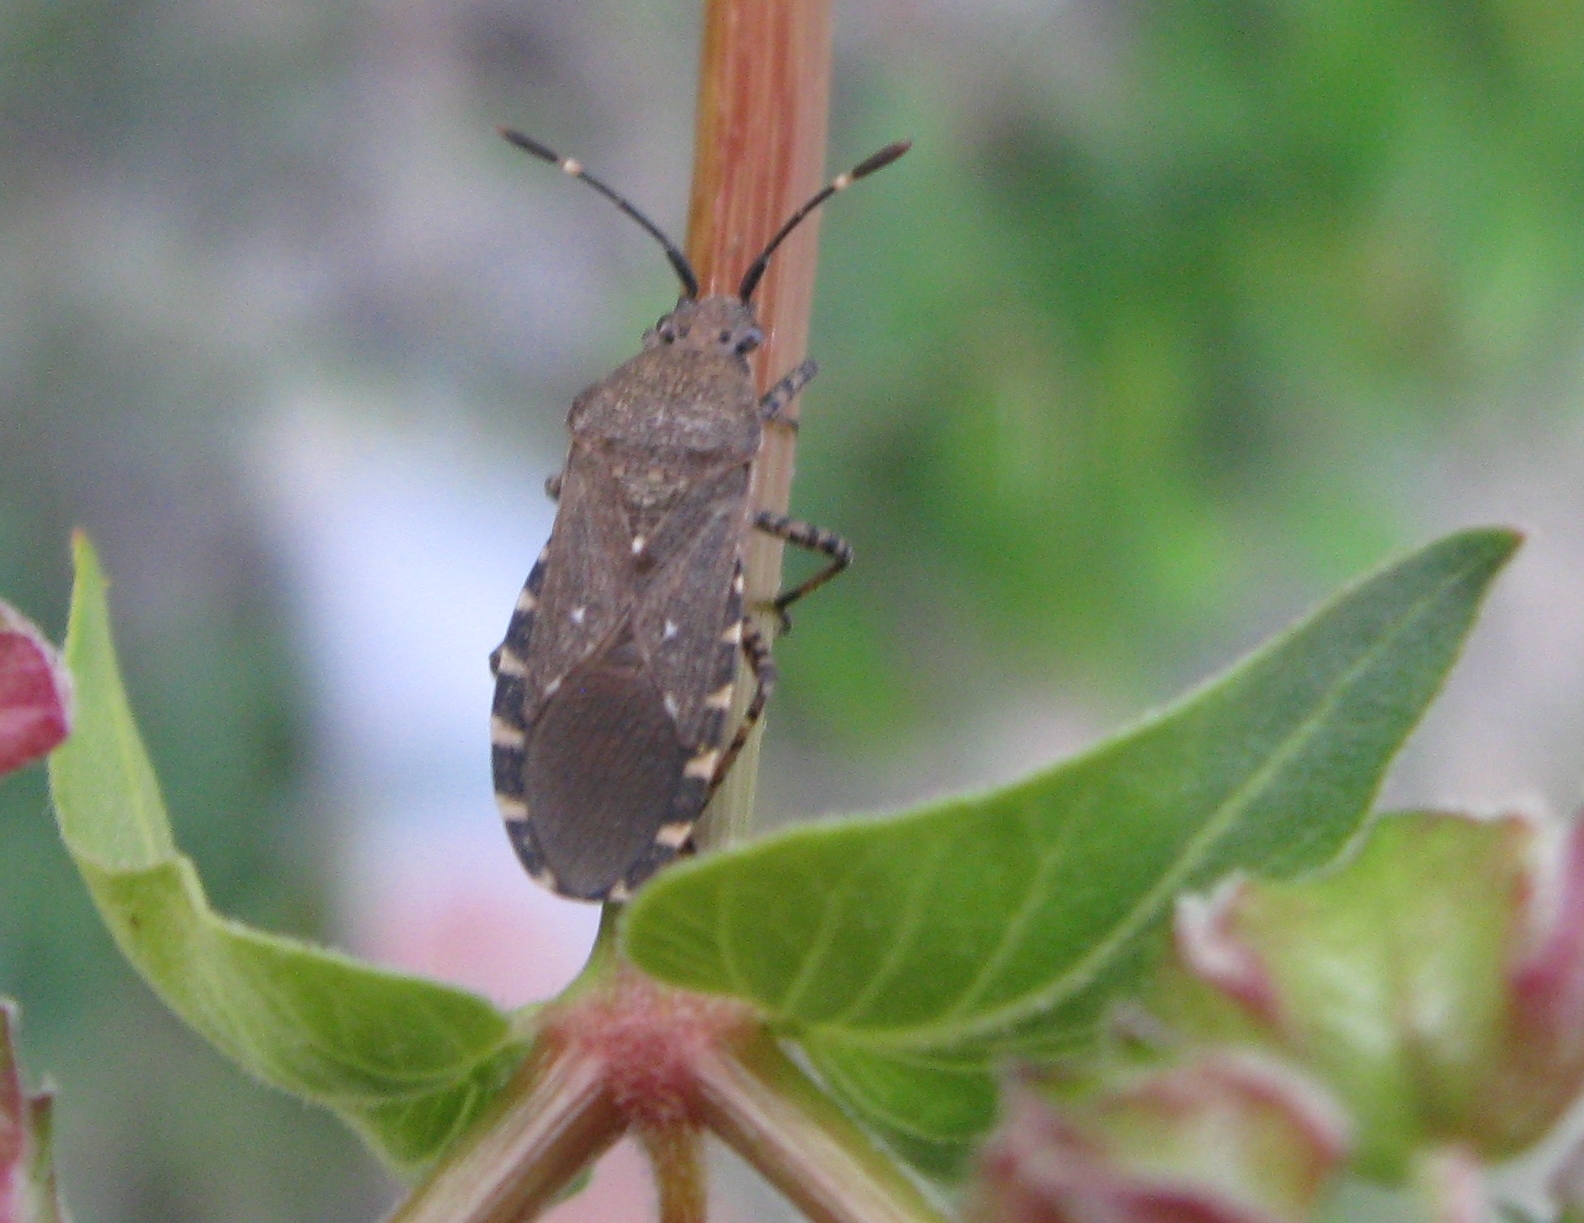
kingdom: Animalia
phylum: Arthropoda
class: Insecta
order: Hemiptera
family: Coreidae
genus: Catorhintha
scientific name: Catorhintha mendica
